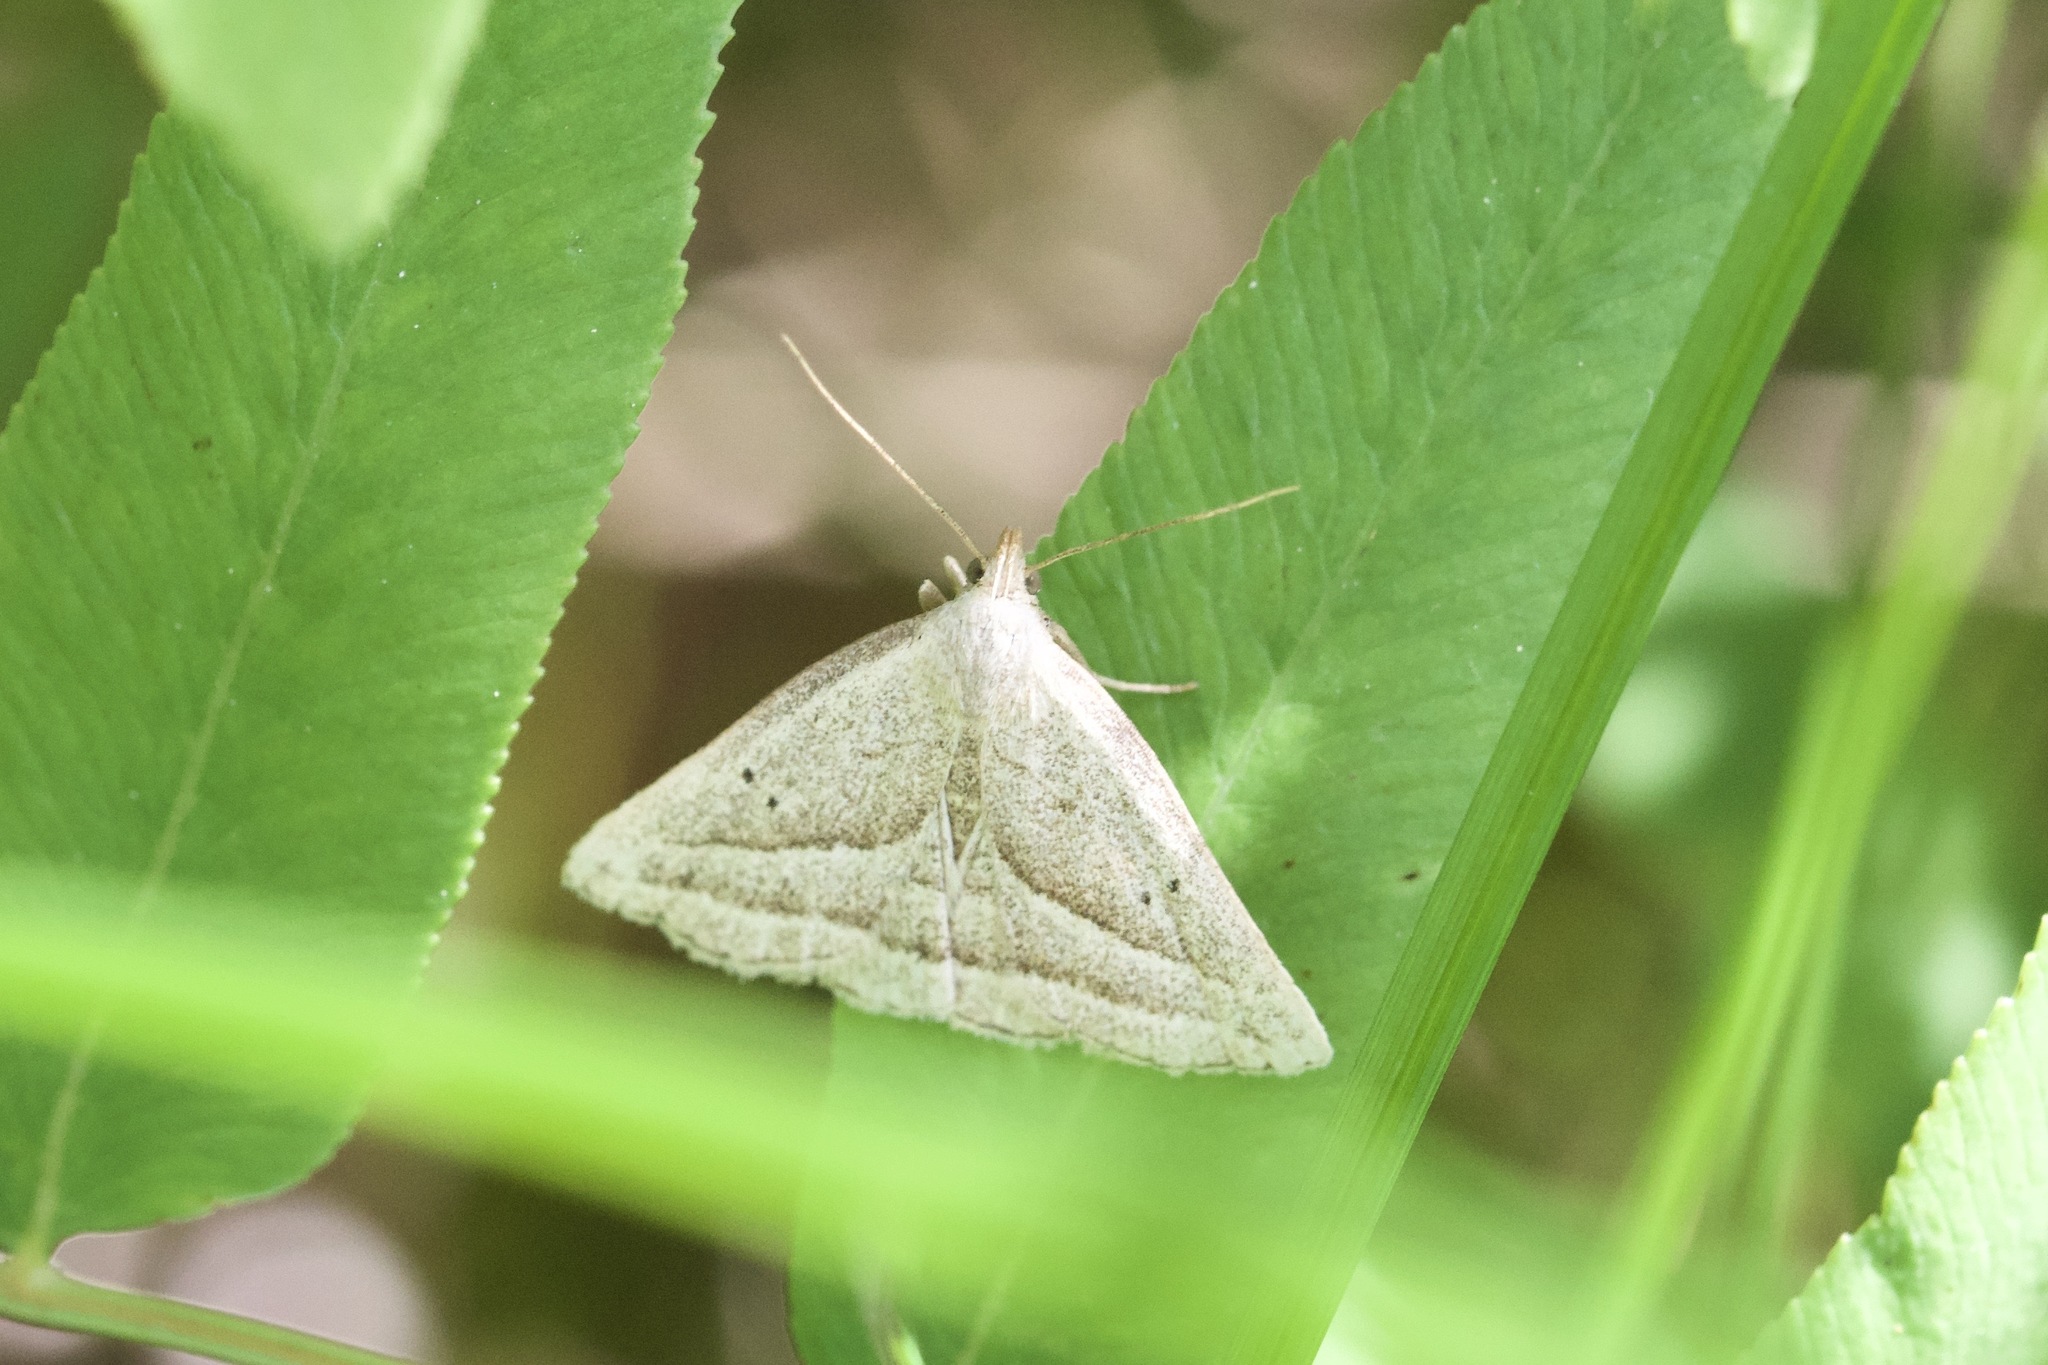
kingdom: Animalia
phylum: Arthropoda
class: Insecta
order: Lepidoptera
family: Erebidae
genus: Macrochilo
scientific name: Macrochilo absorptalis
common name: Slant-lined owlet
